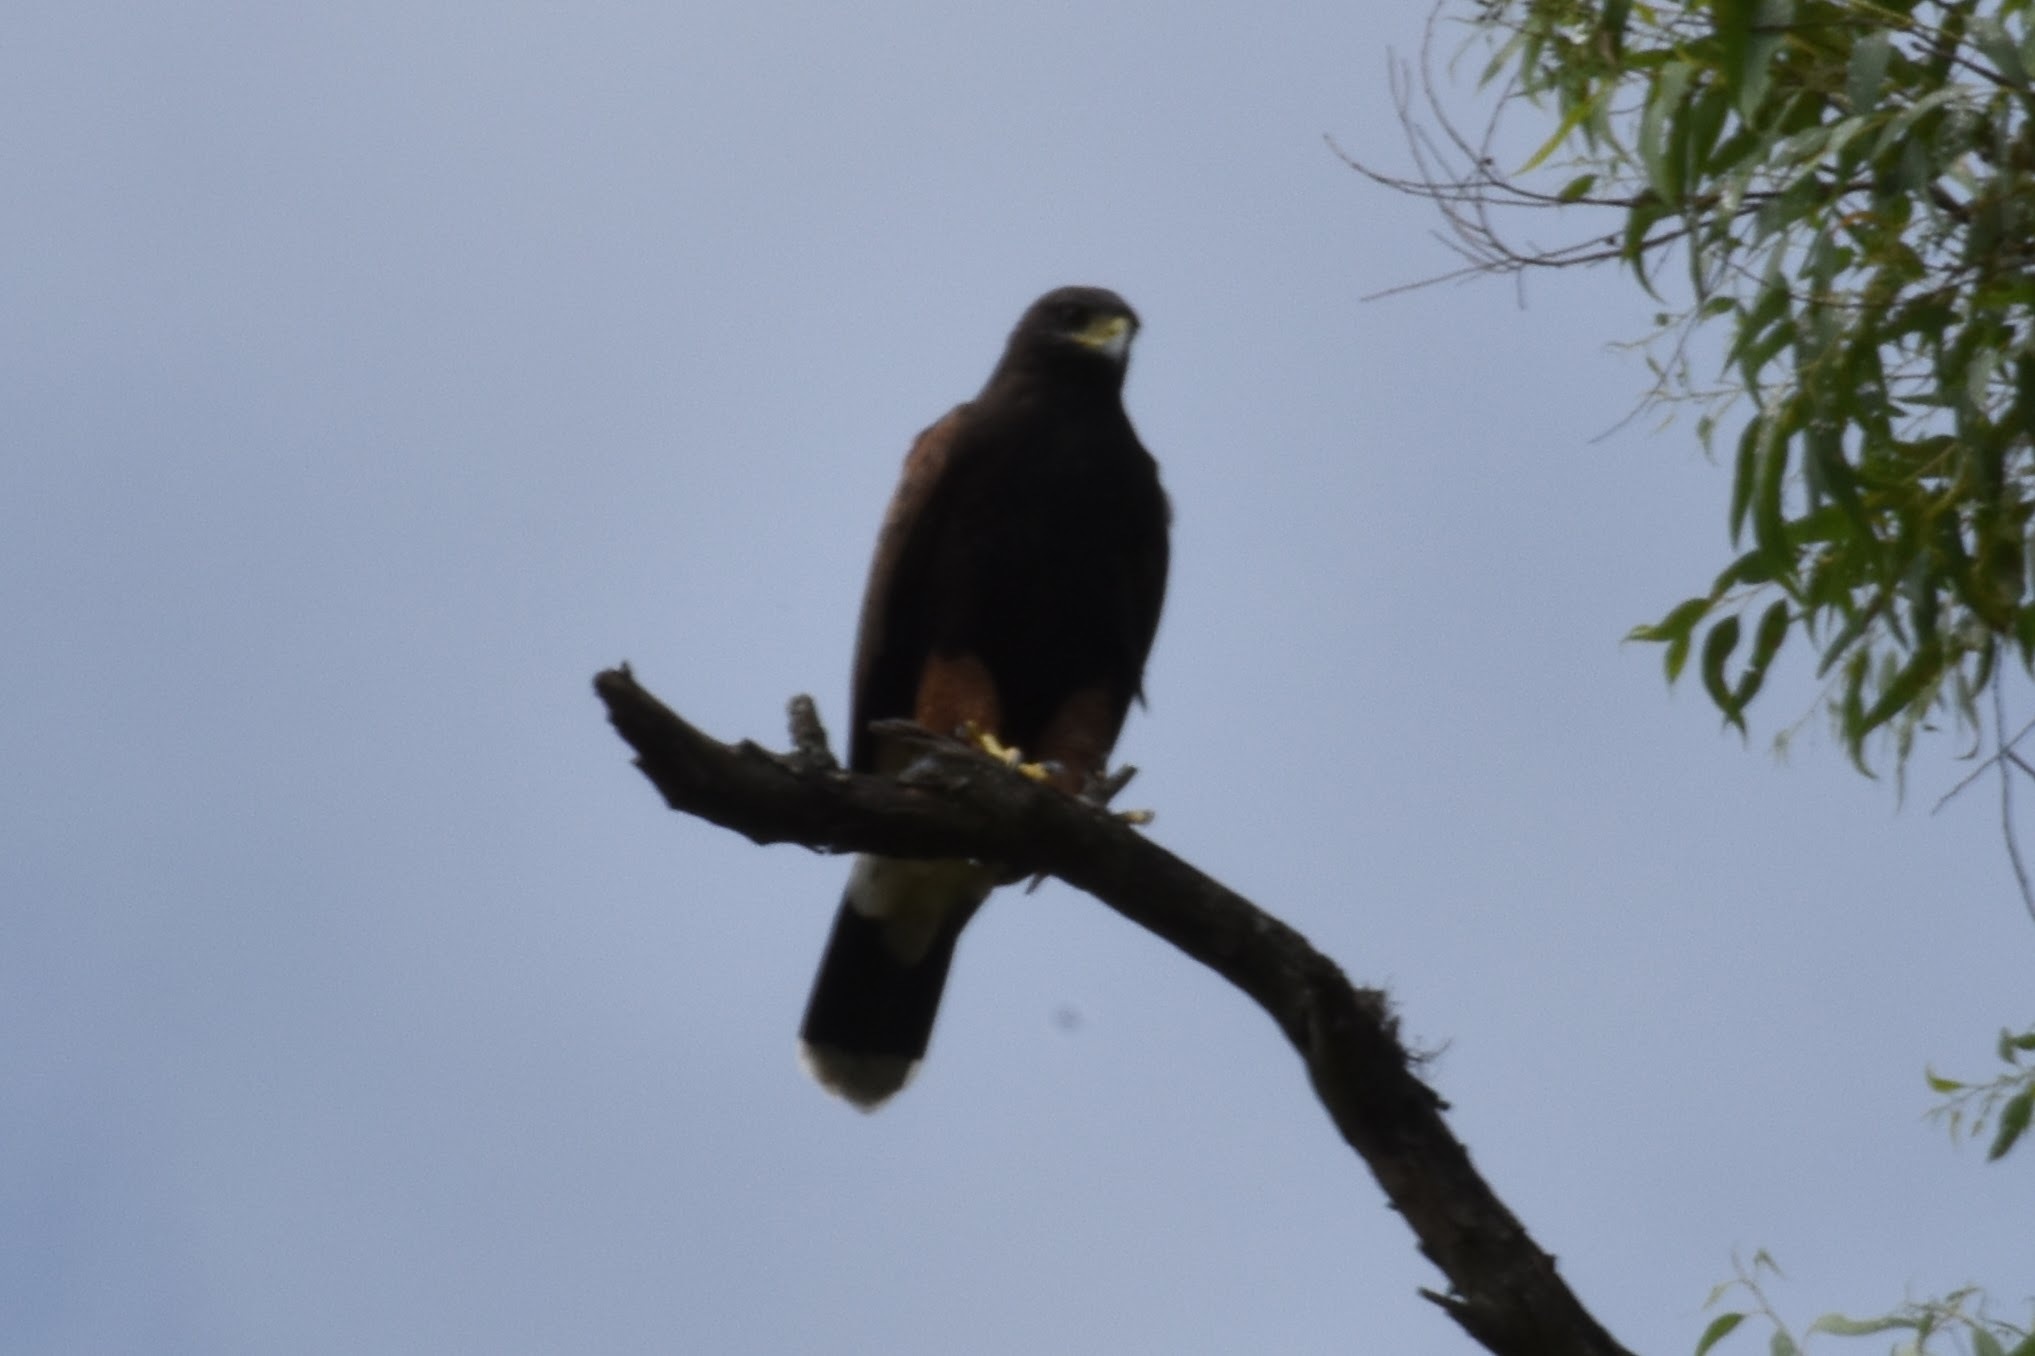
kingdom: Animalia
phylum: Chordata
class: Aves
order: Accipitriformes
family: Accipitridae
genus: Parabuteo
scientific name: Parabuteo unicinctus
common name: Harris's hawk
